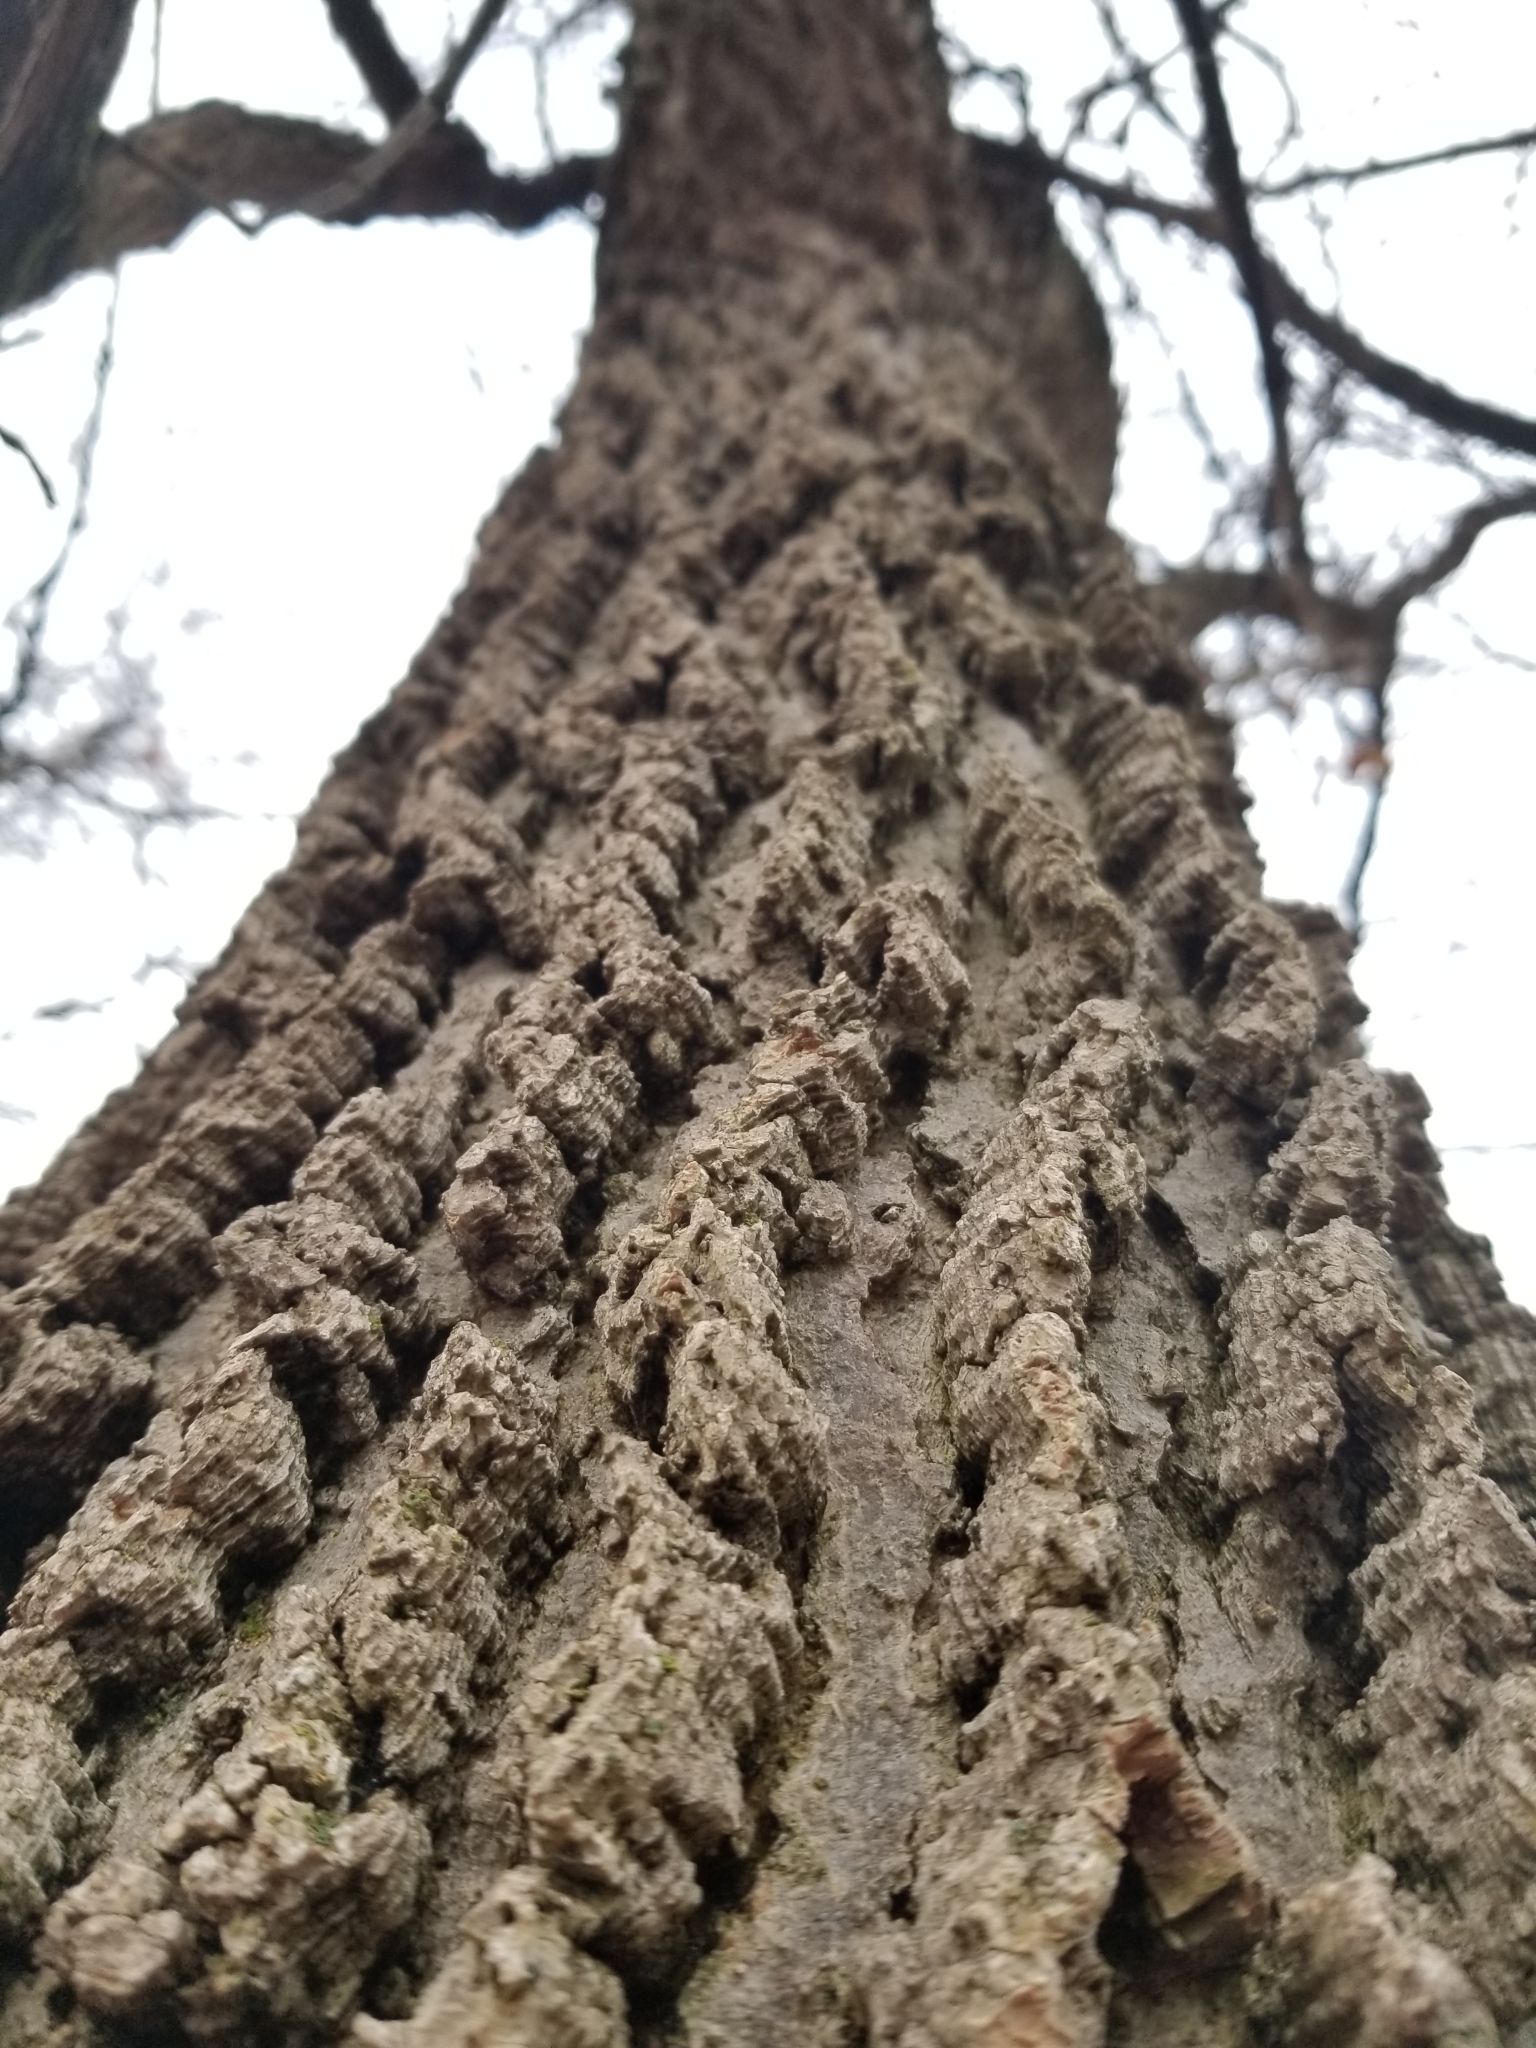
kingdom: Plantae
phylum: Tracheophyta
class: Magnoliopsida
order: Rosales
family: Cannabaceae
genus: Celtis
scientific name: Celtis occidentalis
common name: Common hackberry
